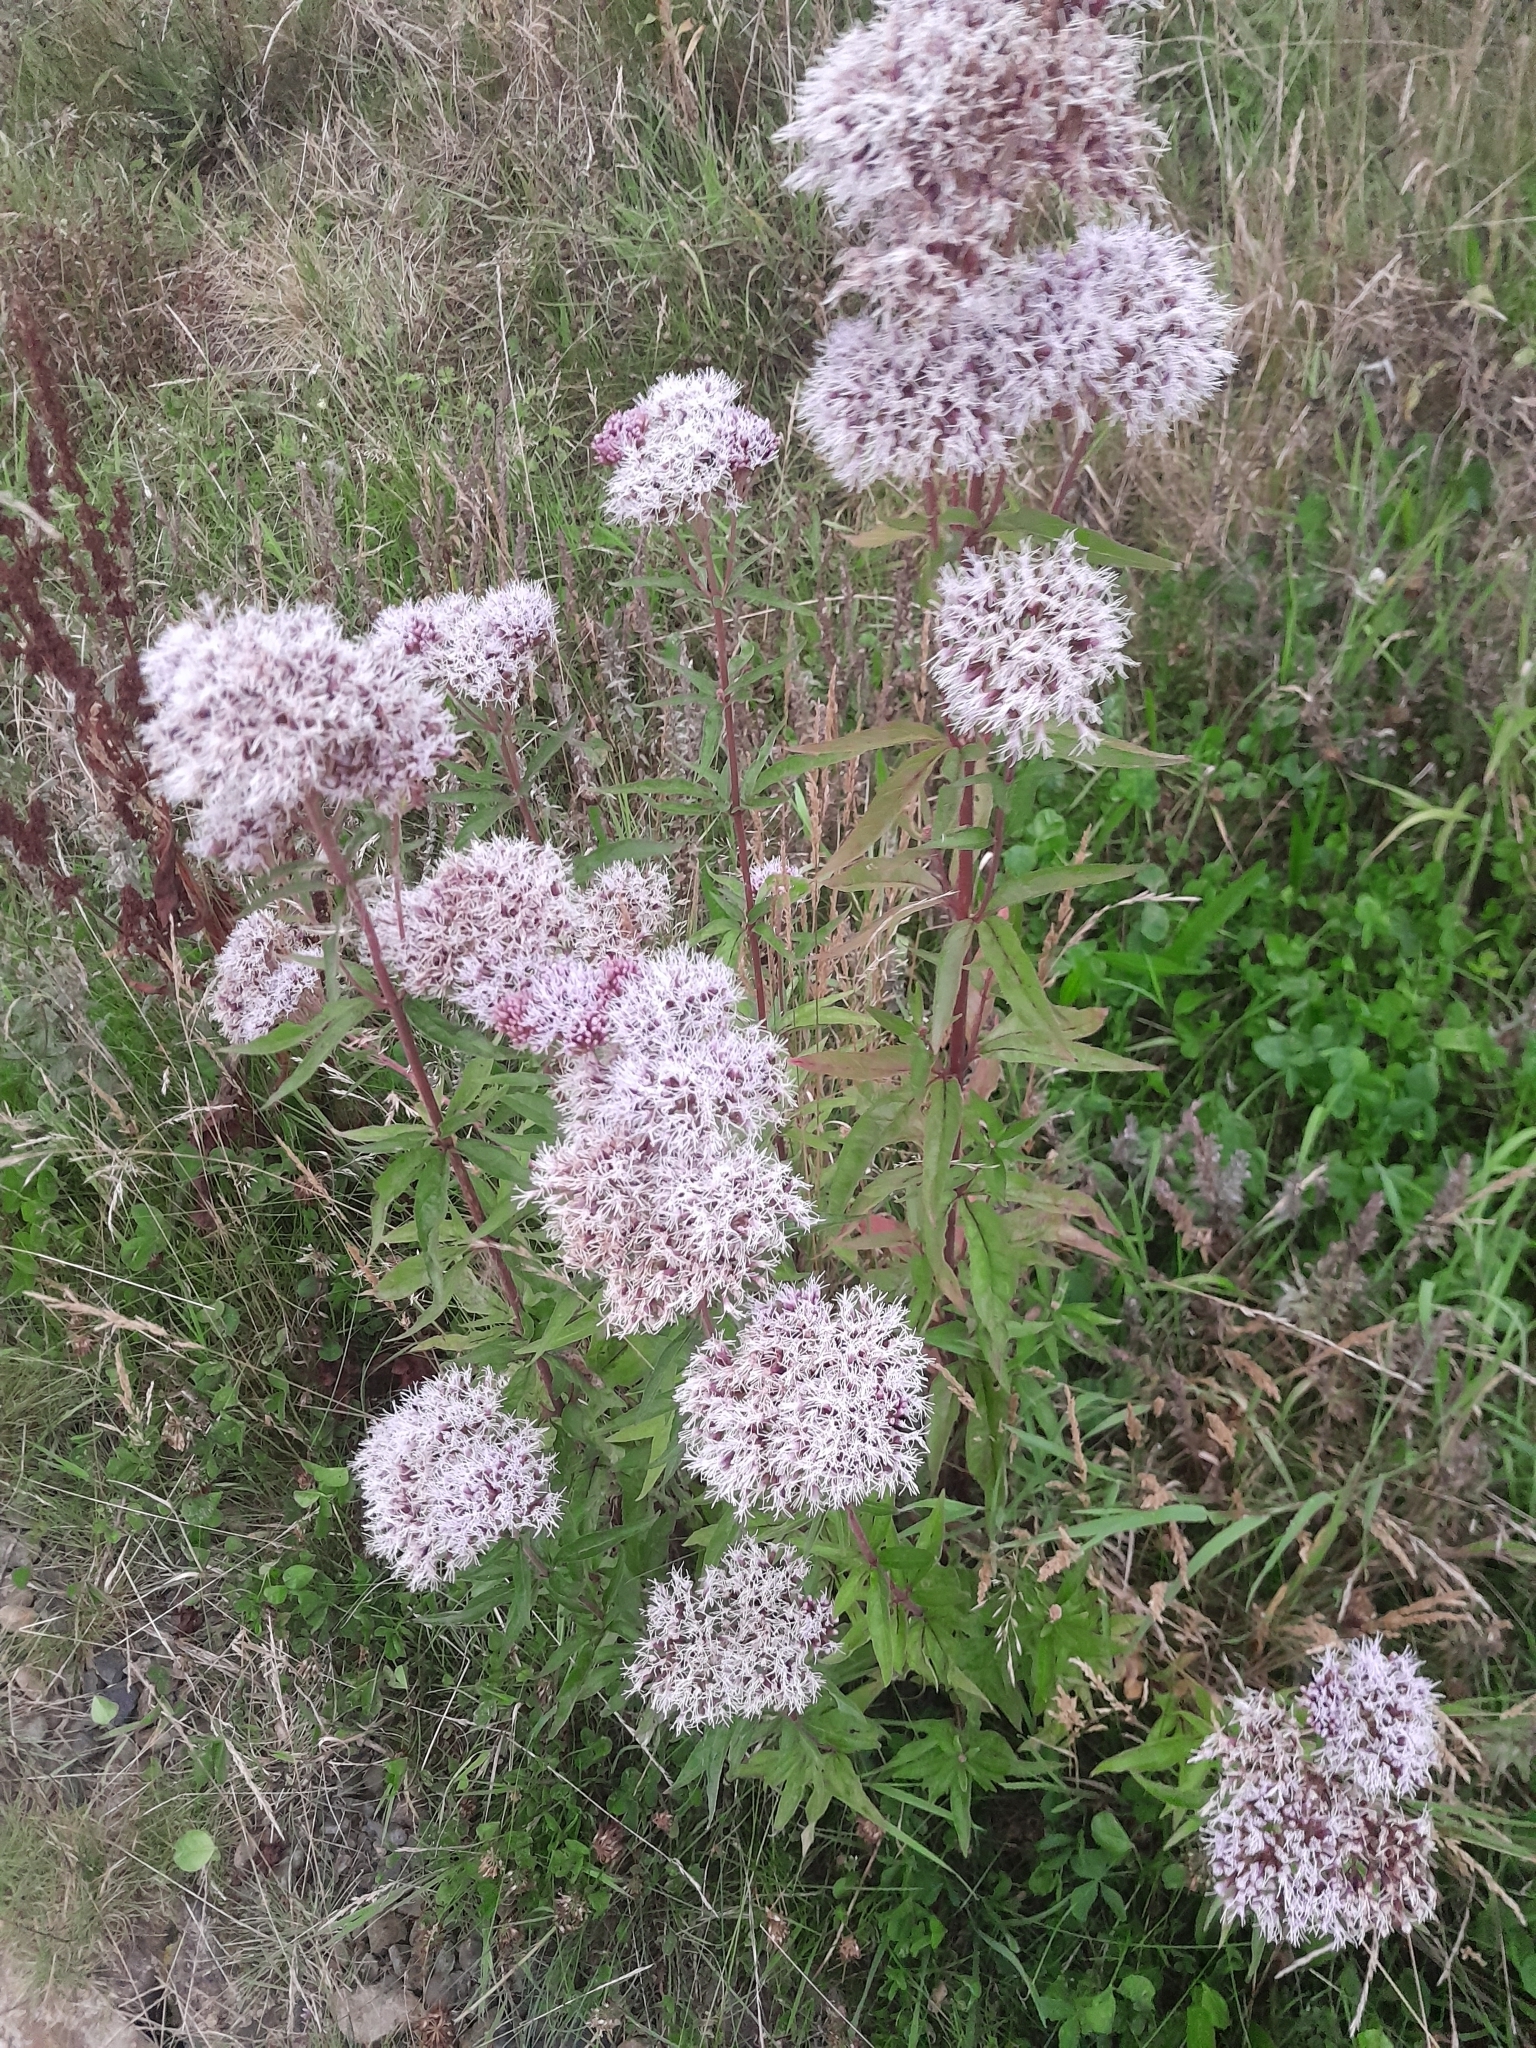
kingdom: Plantae
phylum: Tracheophyta
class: Magnoliopsida
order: Asterales
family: Asteraceae
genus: Eupatorium
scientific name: Eupatorium cannabinum
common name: Hemp-agrimony
